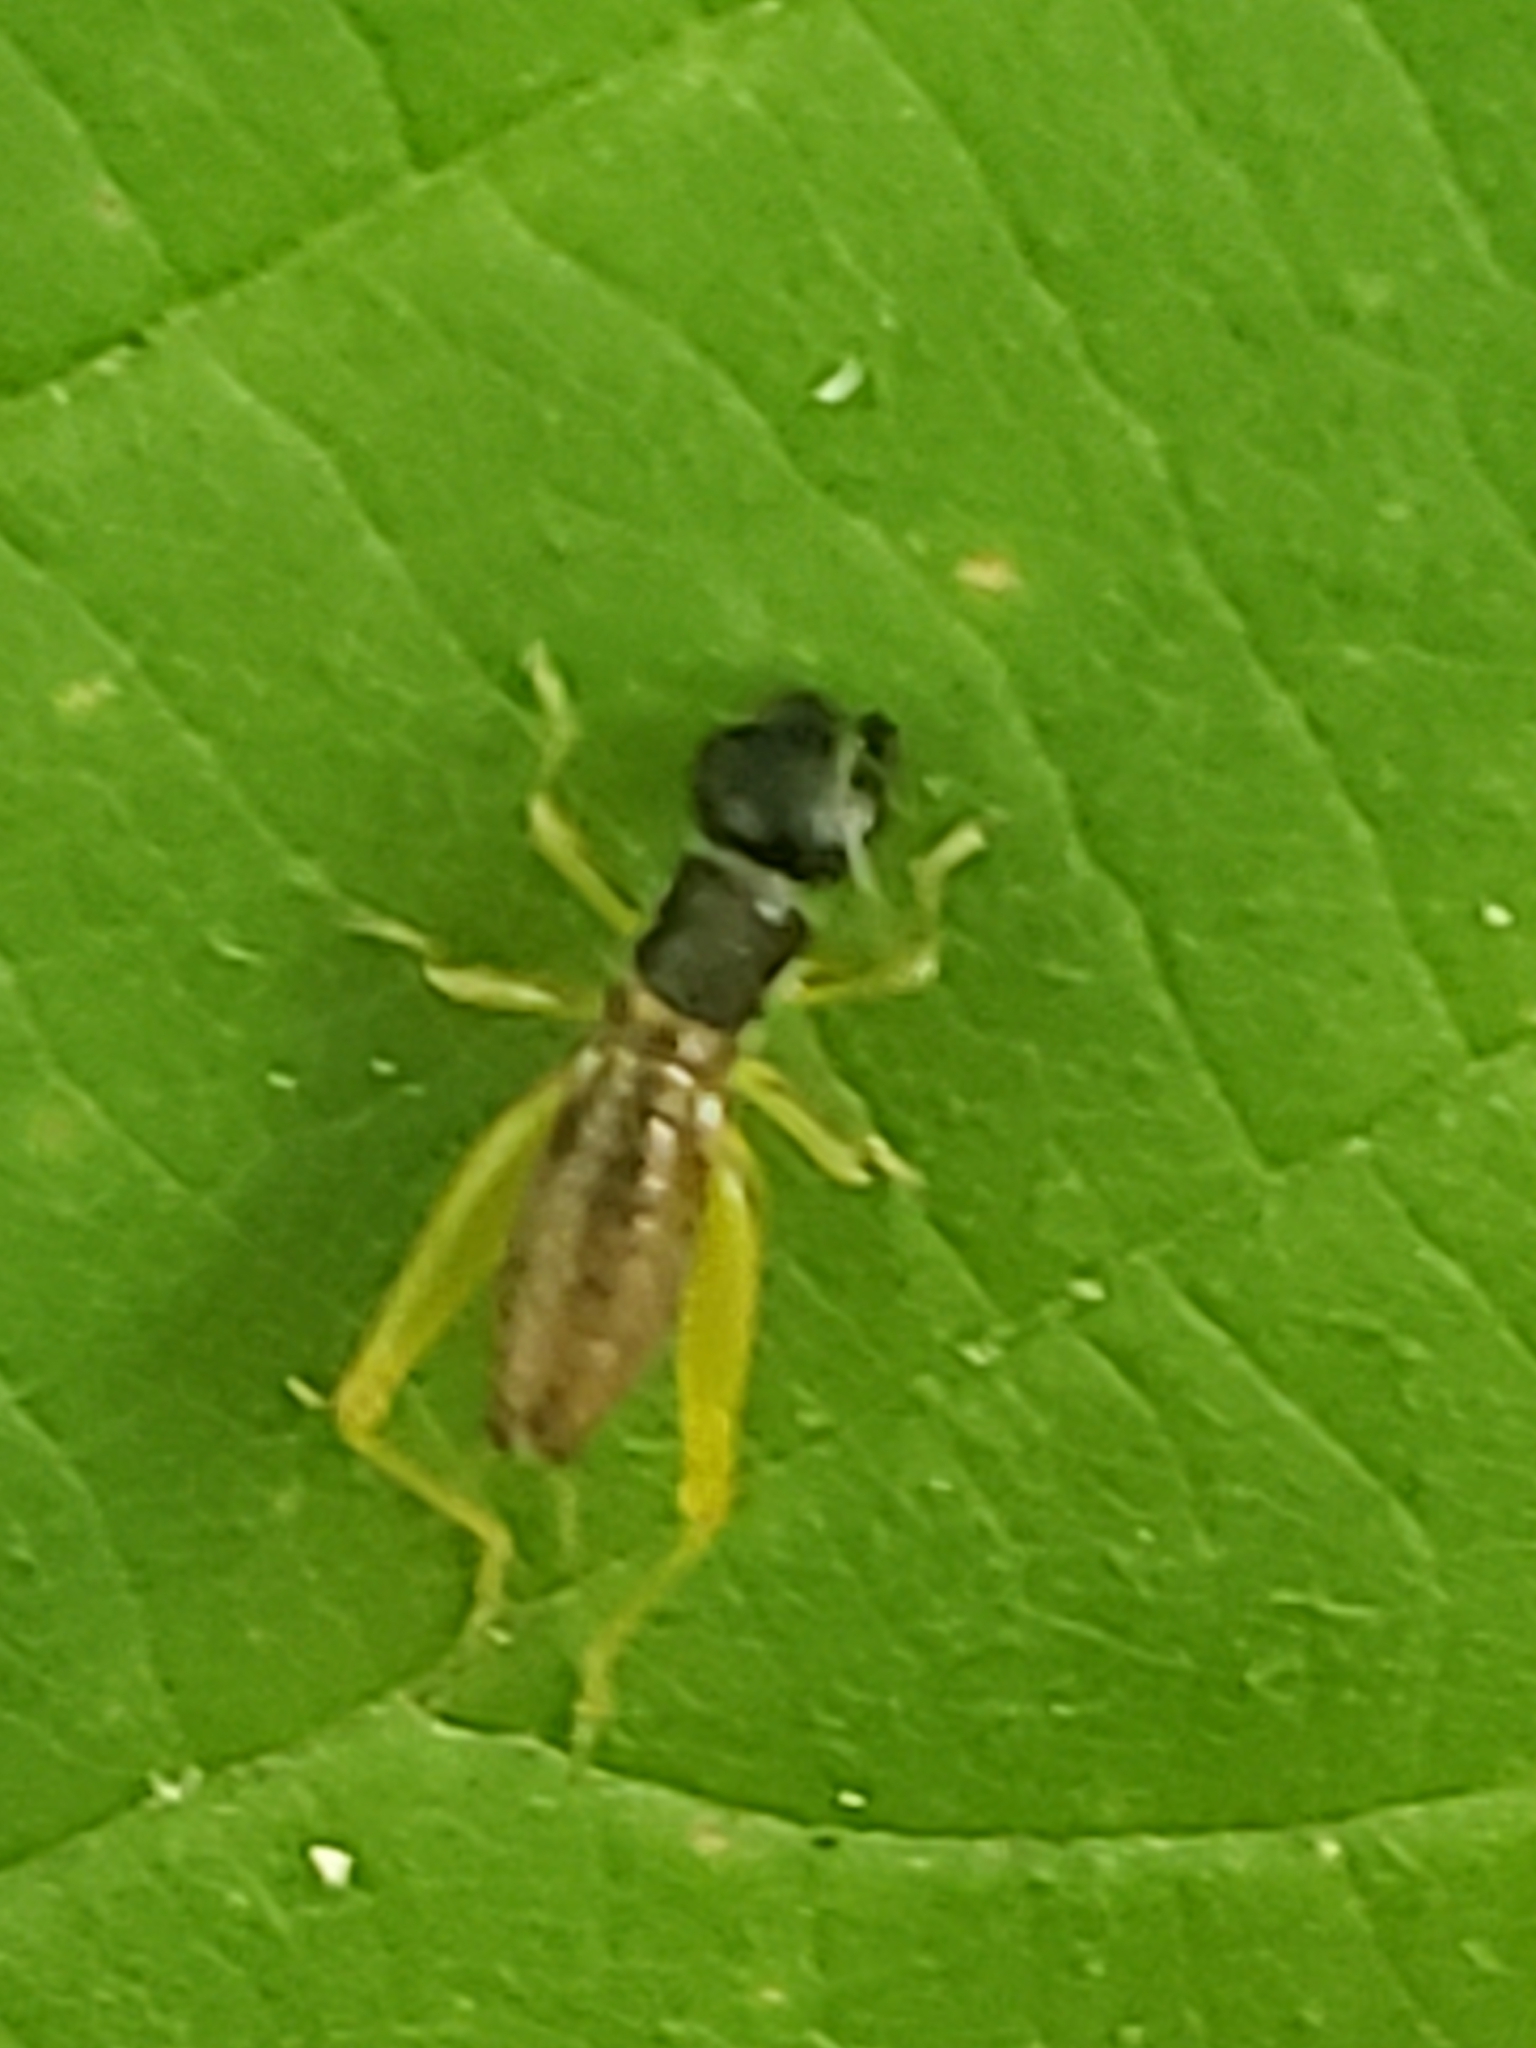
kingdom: Animalia
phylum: Arthropoda
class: Insecta
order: Orthoptera
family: Trigonidiidae
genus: Phyllopalpus
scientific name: Phyllopalpus pulchellus
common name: Handsome trig
